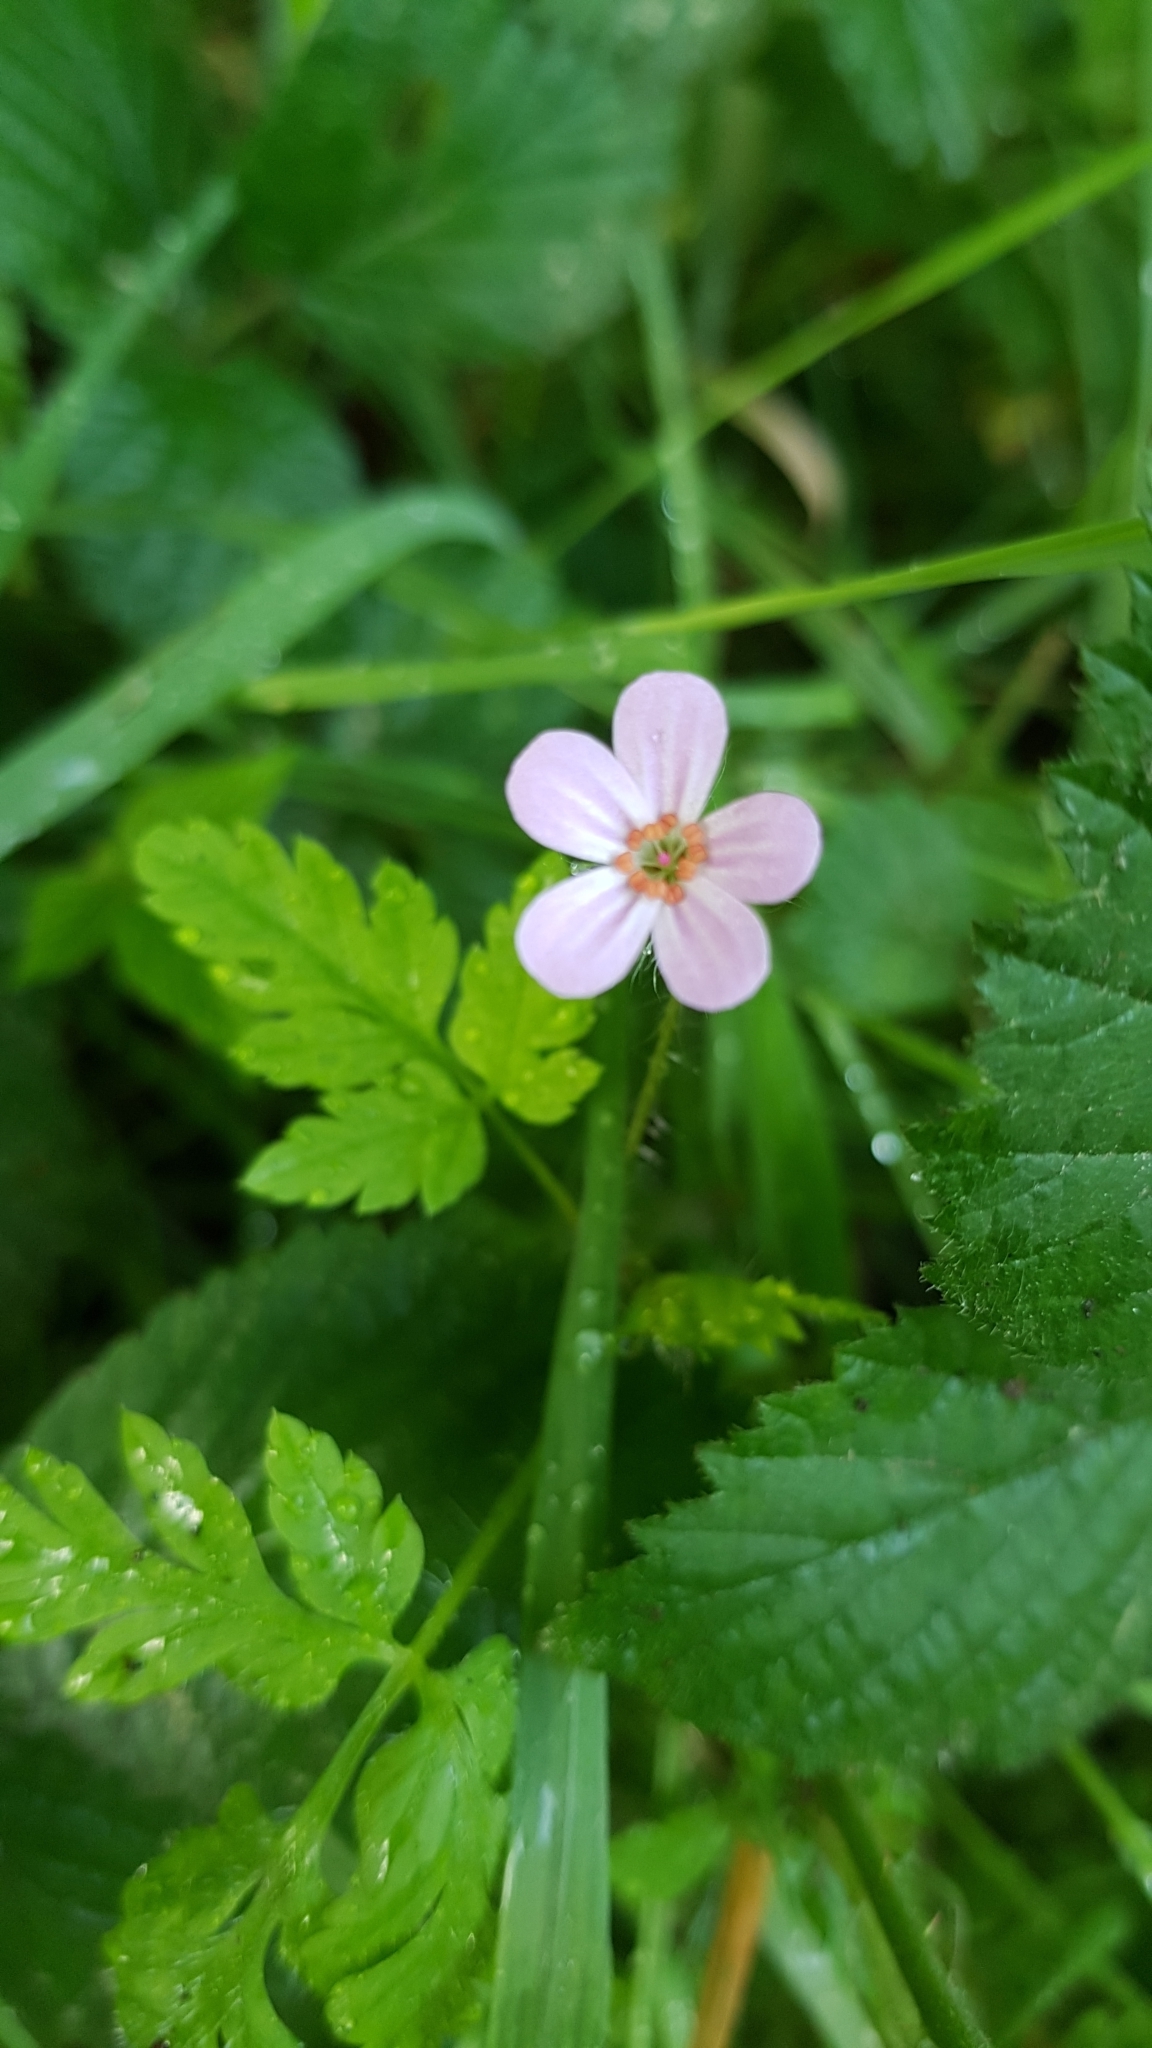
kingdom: Plantae
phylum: Tracheophyta
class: Magnoliopsida
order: Geraniales
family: Geraniaceae
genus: Geranium
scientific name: Geranium robertianum
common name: Herb-robert
